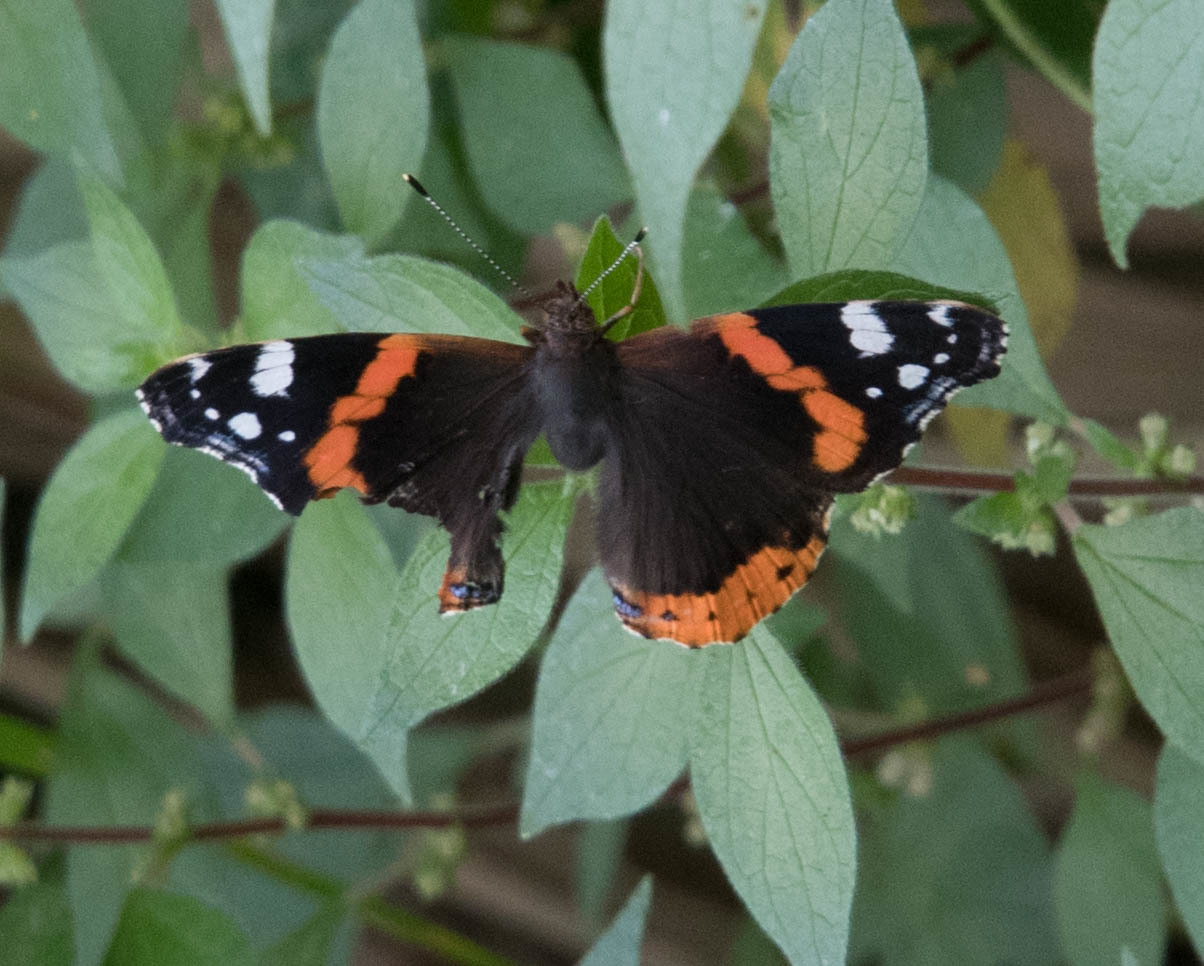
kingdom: Animalia
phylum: Arthropoda
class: Insecta
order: Lepidoptera
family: Nymphalidae
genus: Vanessa
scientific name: Vanessa atalanta
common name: Red admiral
